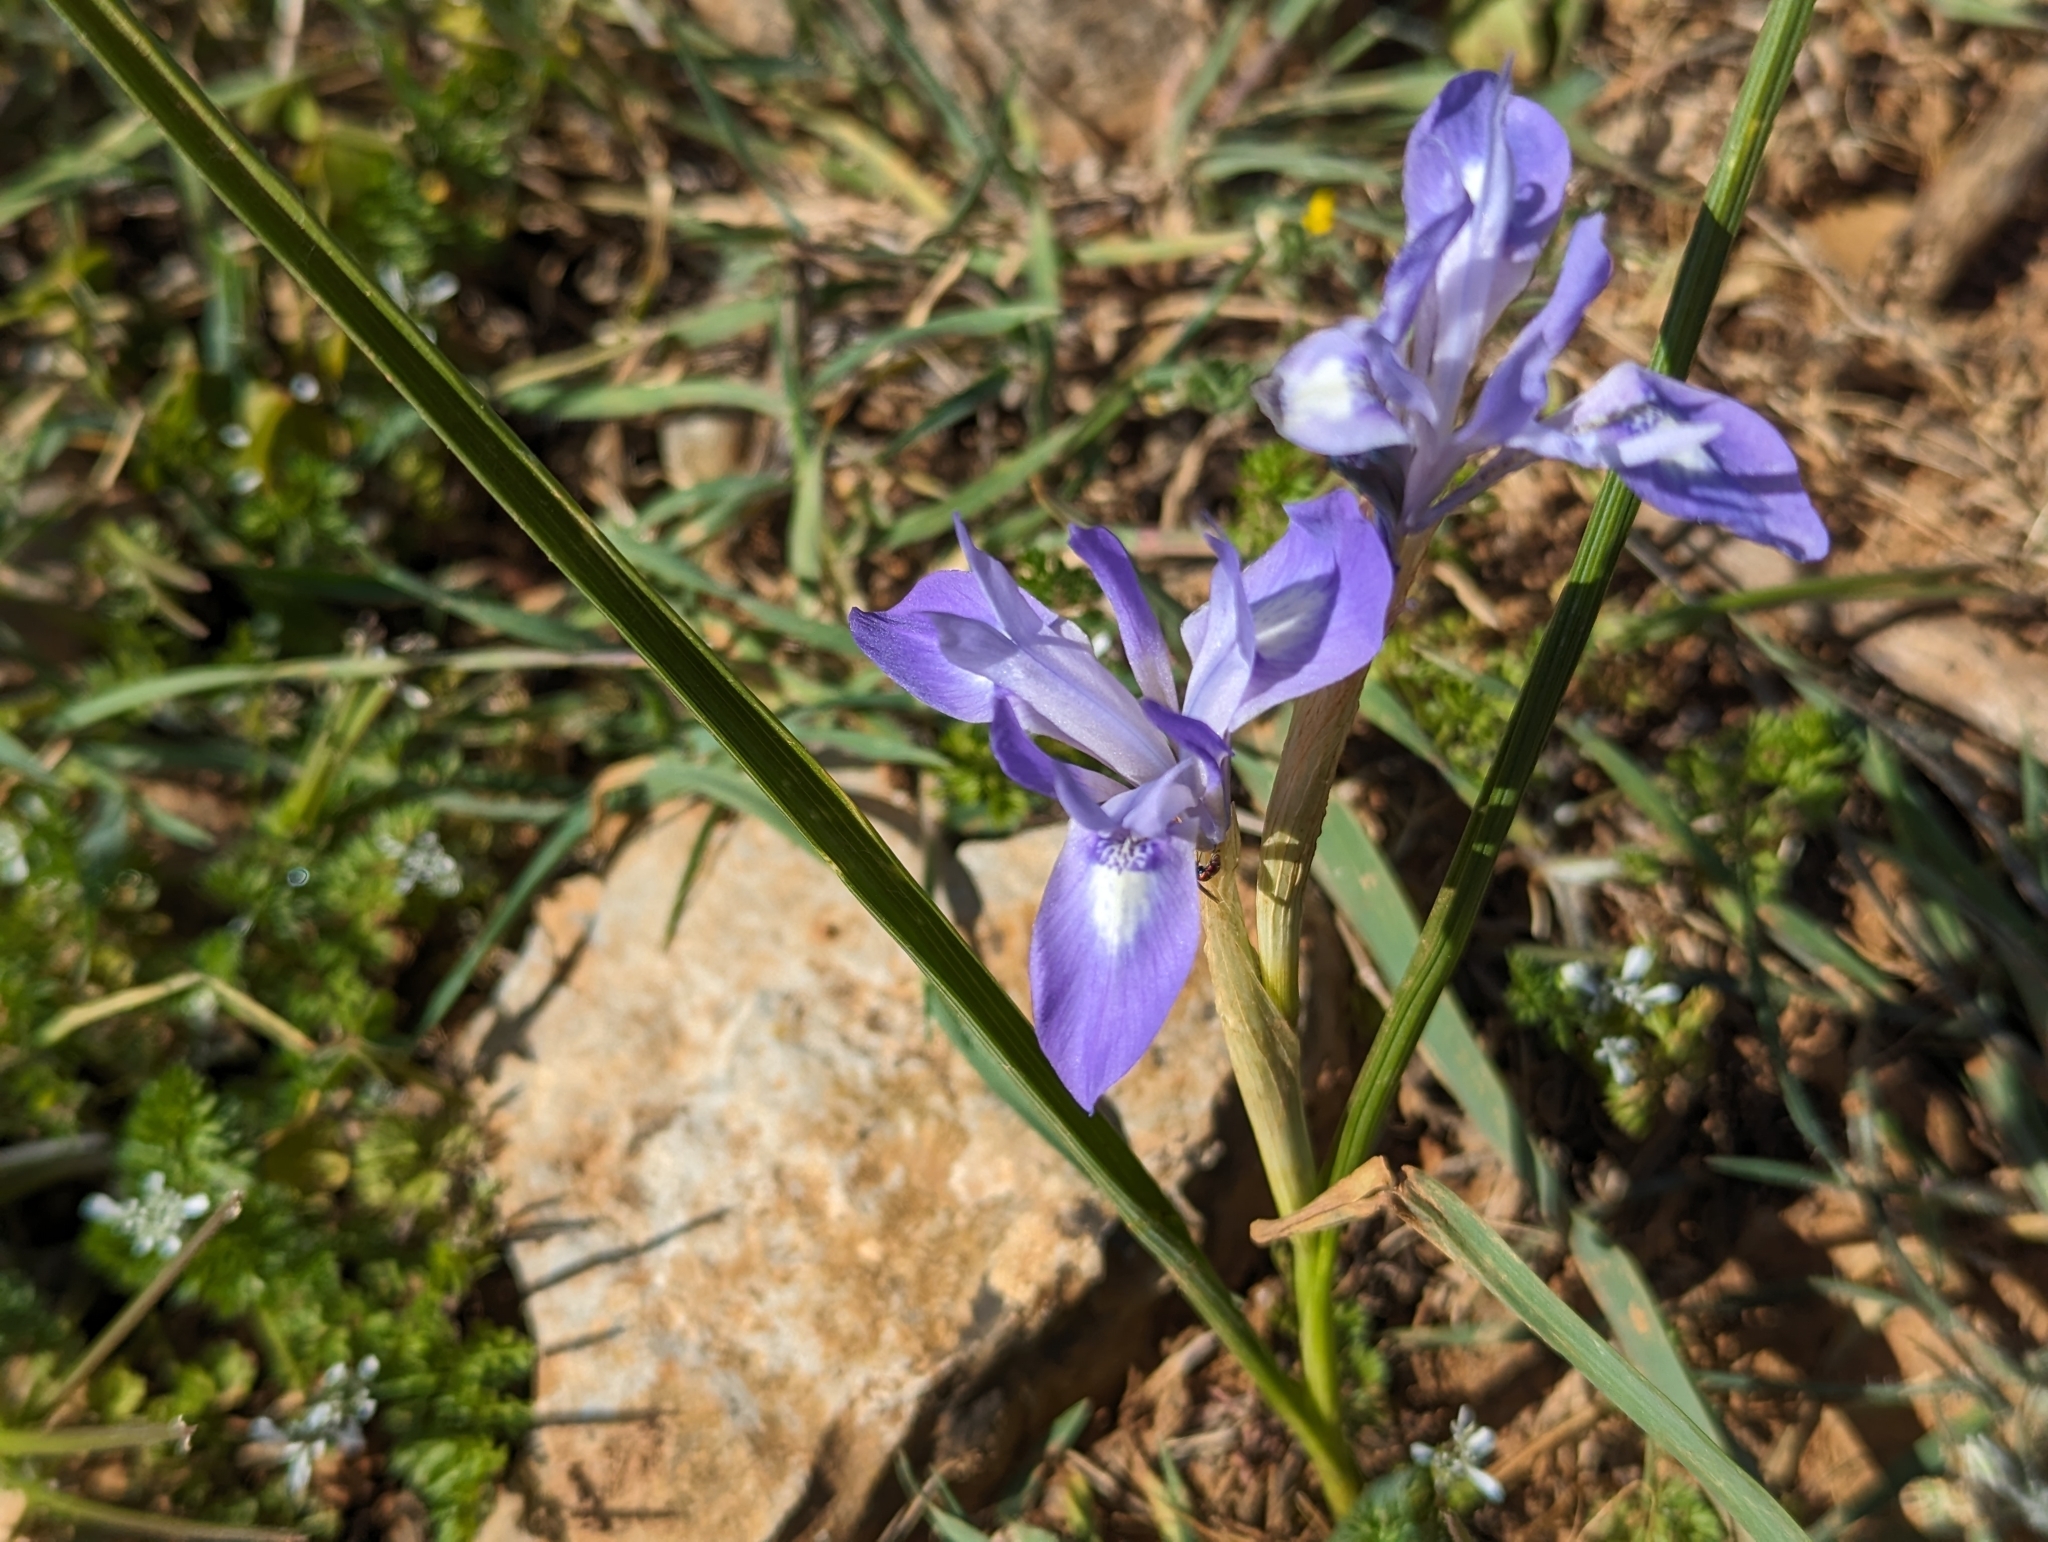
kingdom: Plantae
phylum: Tracheophyta
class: Liliopsida
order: Asparagales
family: Iridaceae
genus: Moraea
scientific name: Moraea sisyrinchium
